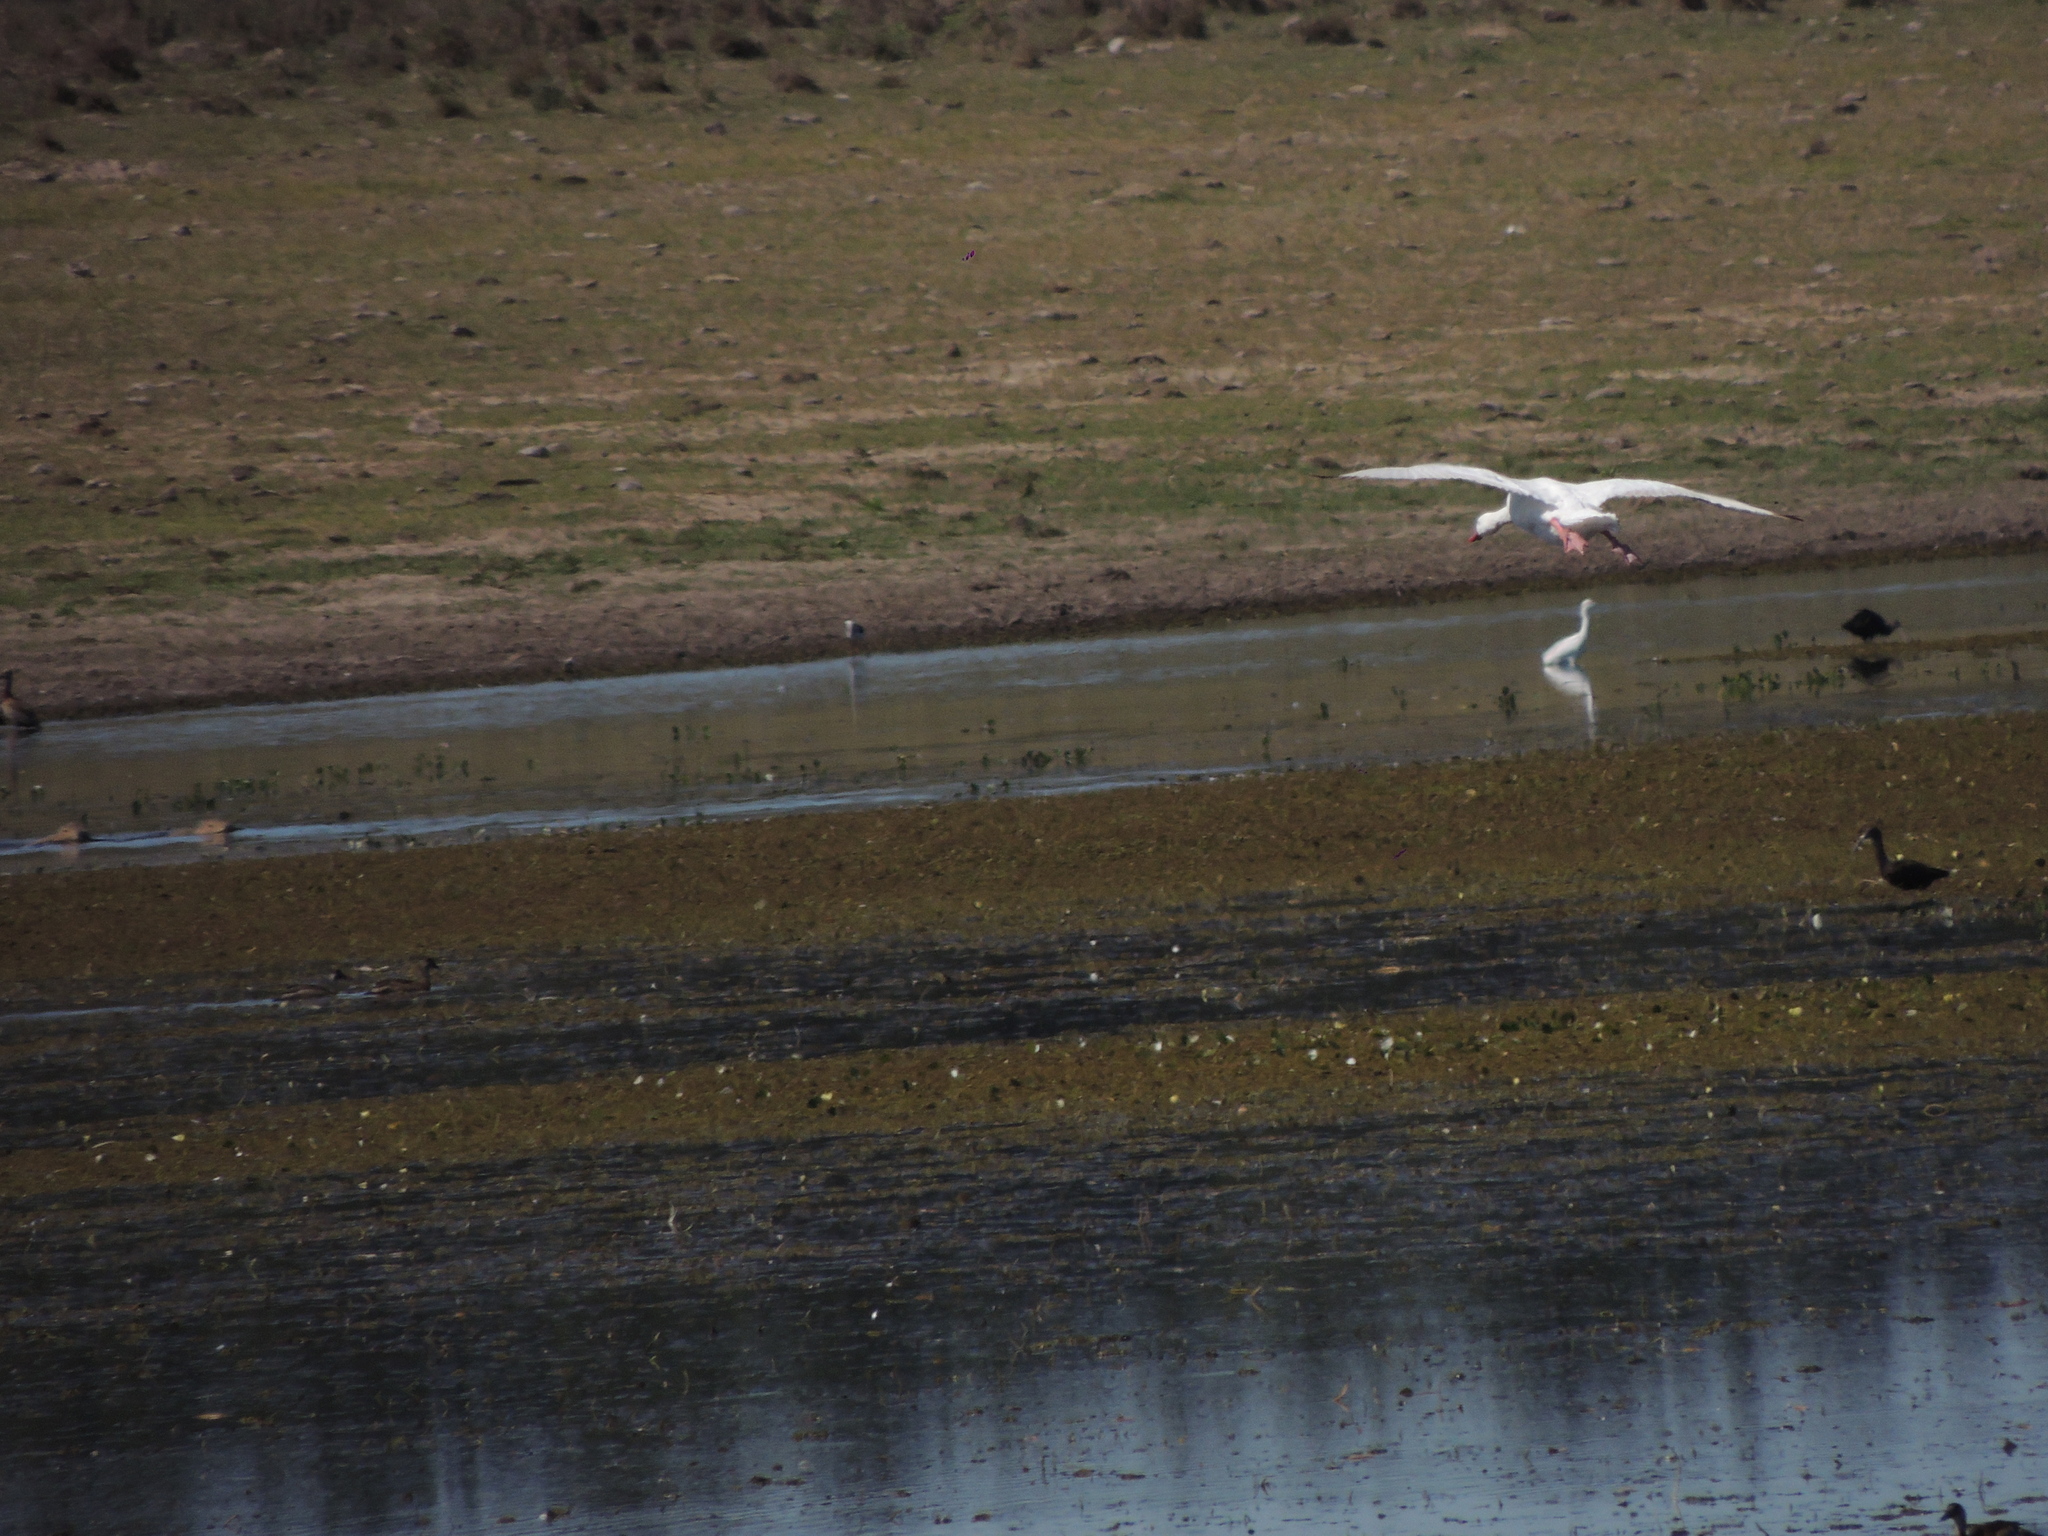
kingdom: Animalia
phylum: Chordata
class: Aves
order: Anseriformes
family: Anatidae
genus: Coscoroba
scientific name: Coscoroba coscoroba
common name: Coscoroba swan
